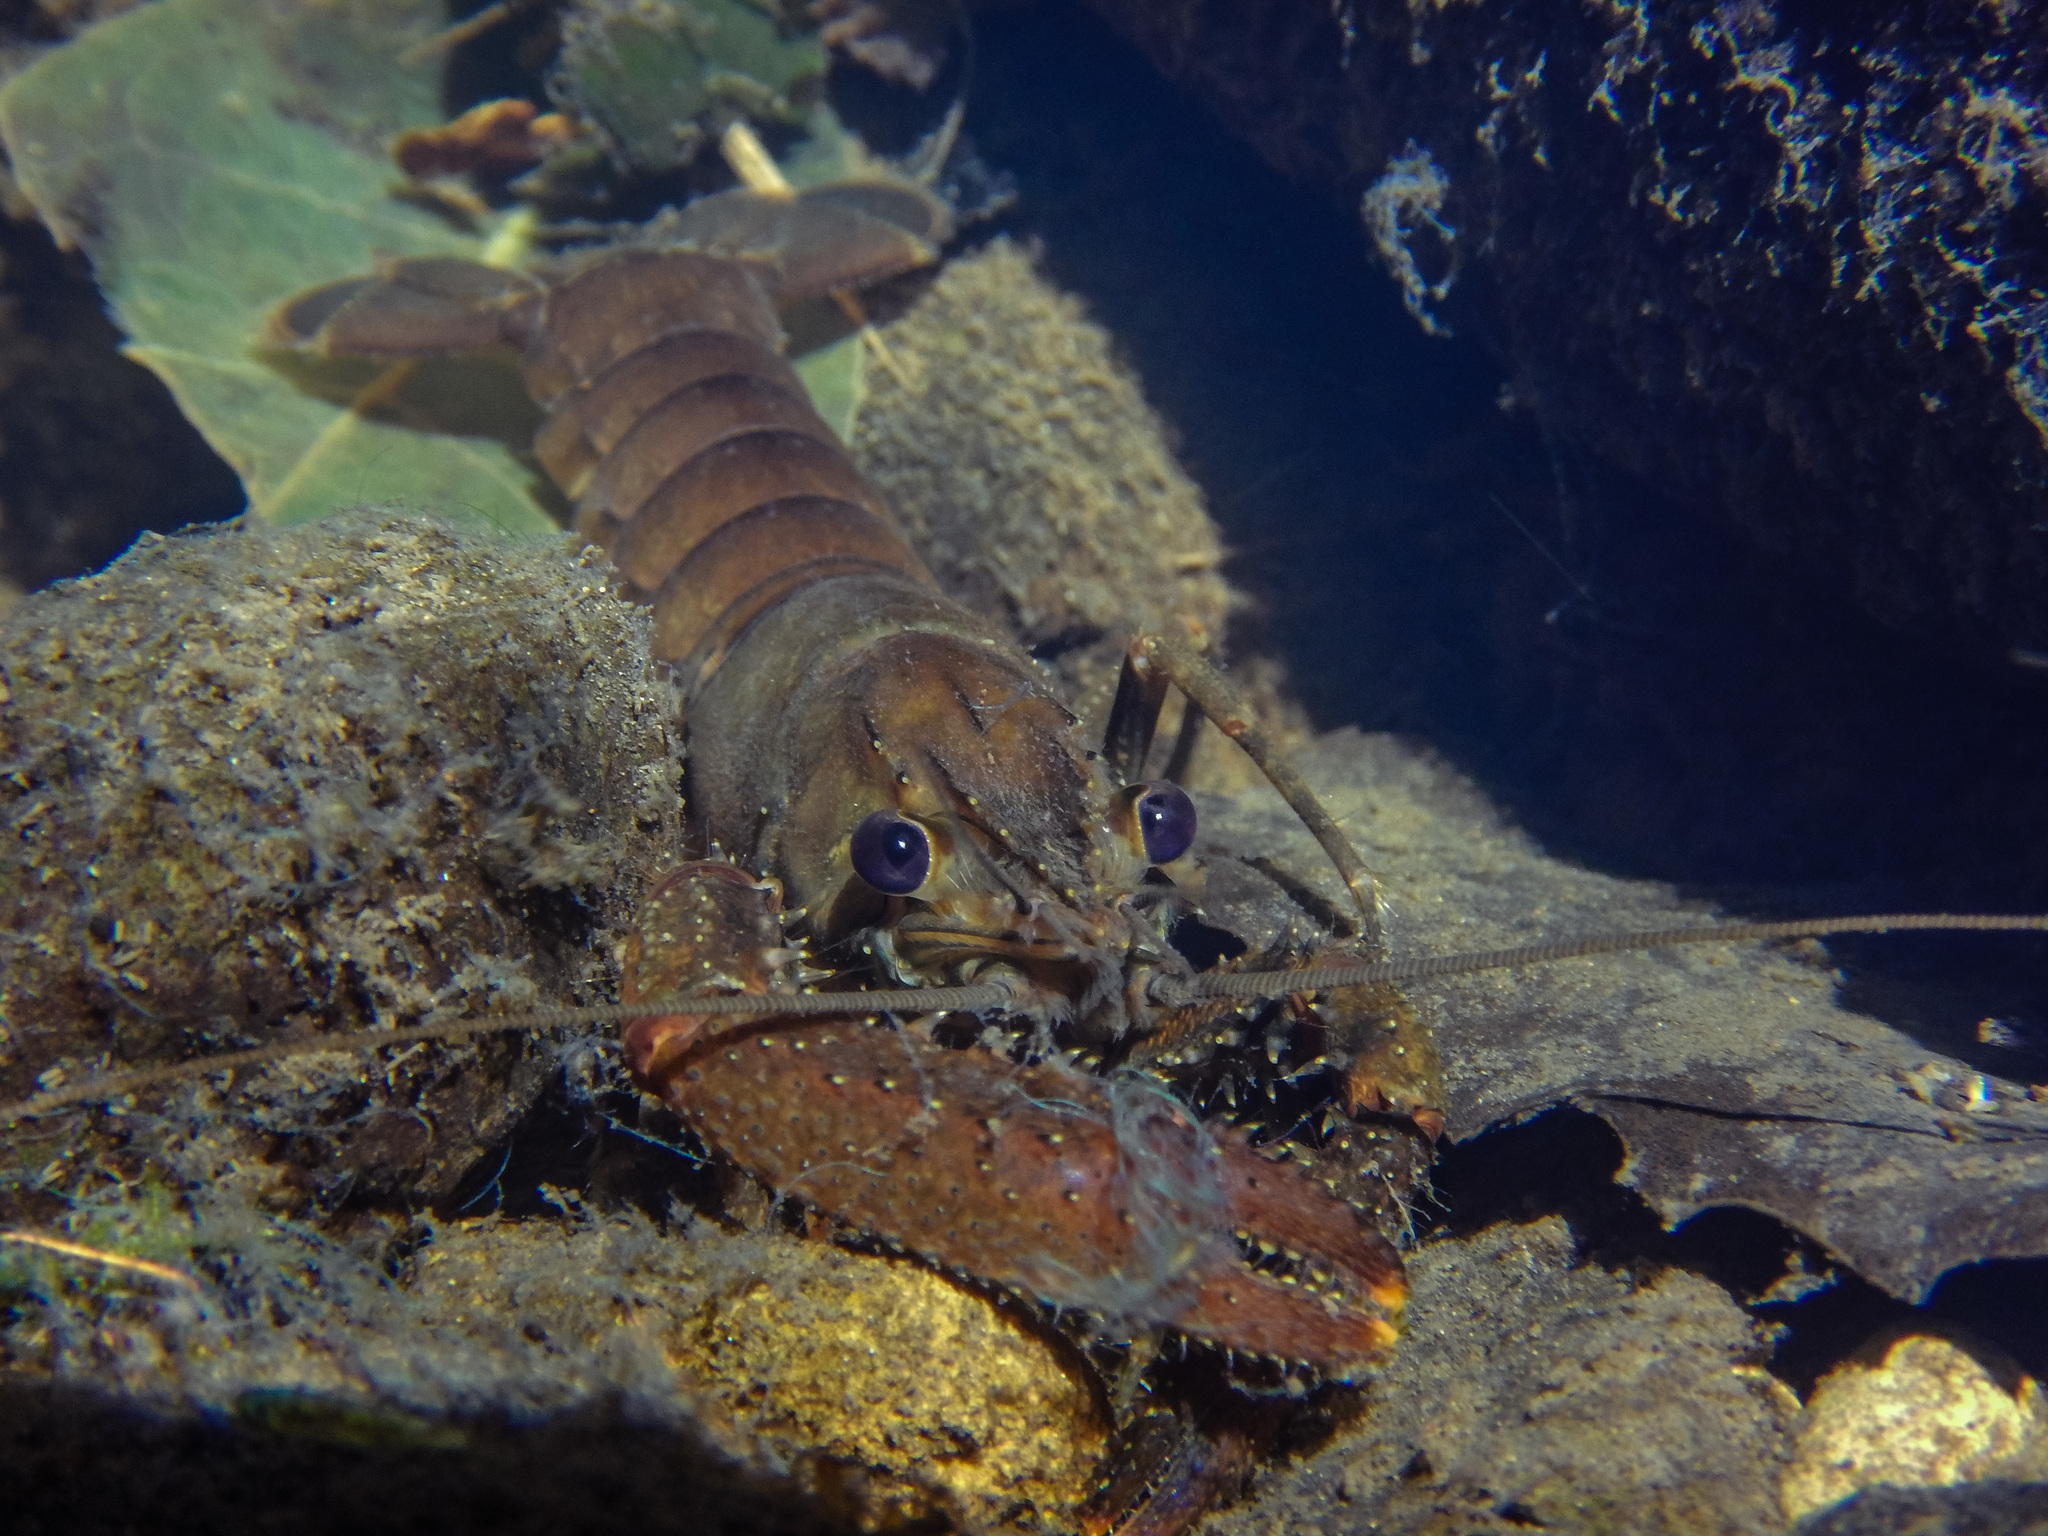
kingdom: Animalia
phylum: Arthropoda
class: Malacostraca
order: Decapoda
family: Parastacidae
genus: Paranephrops
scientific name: Paranephrops planifrons
